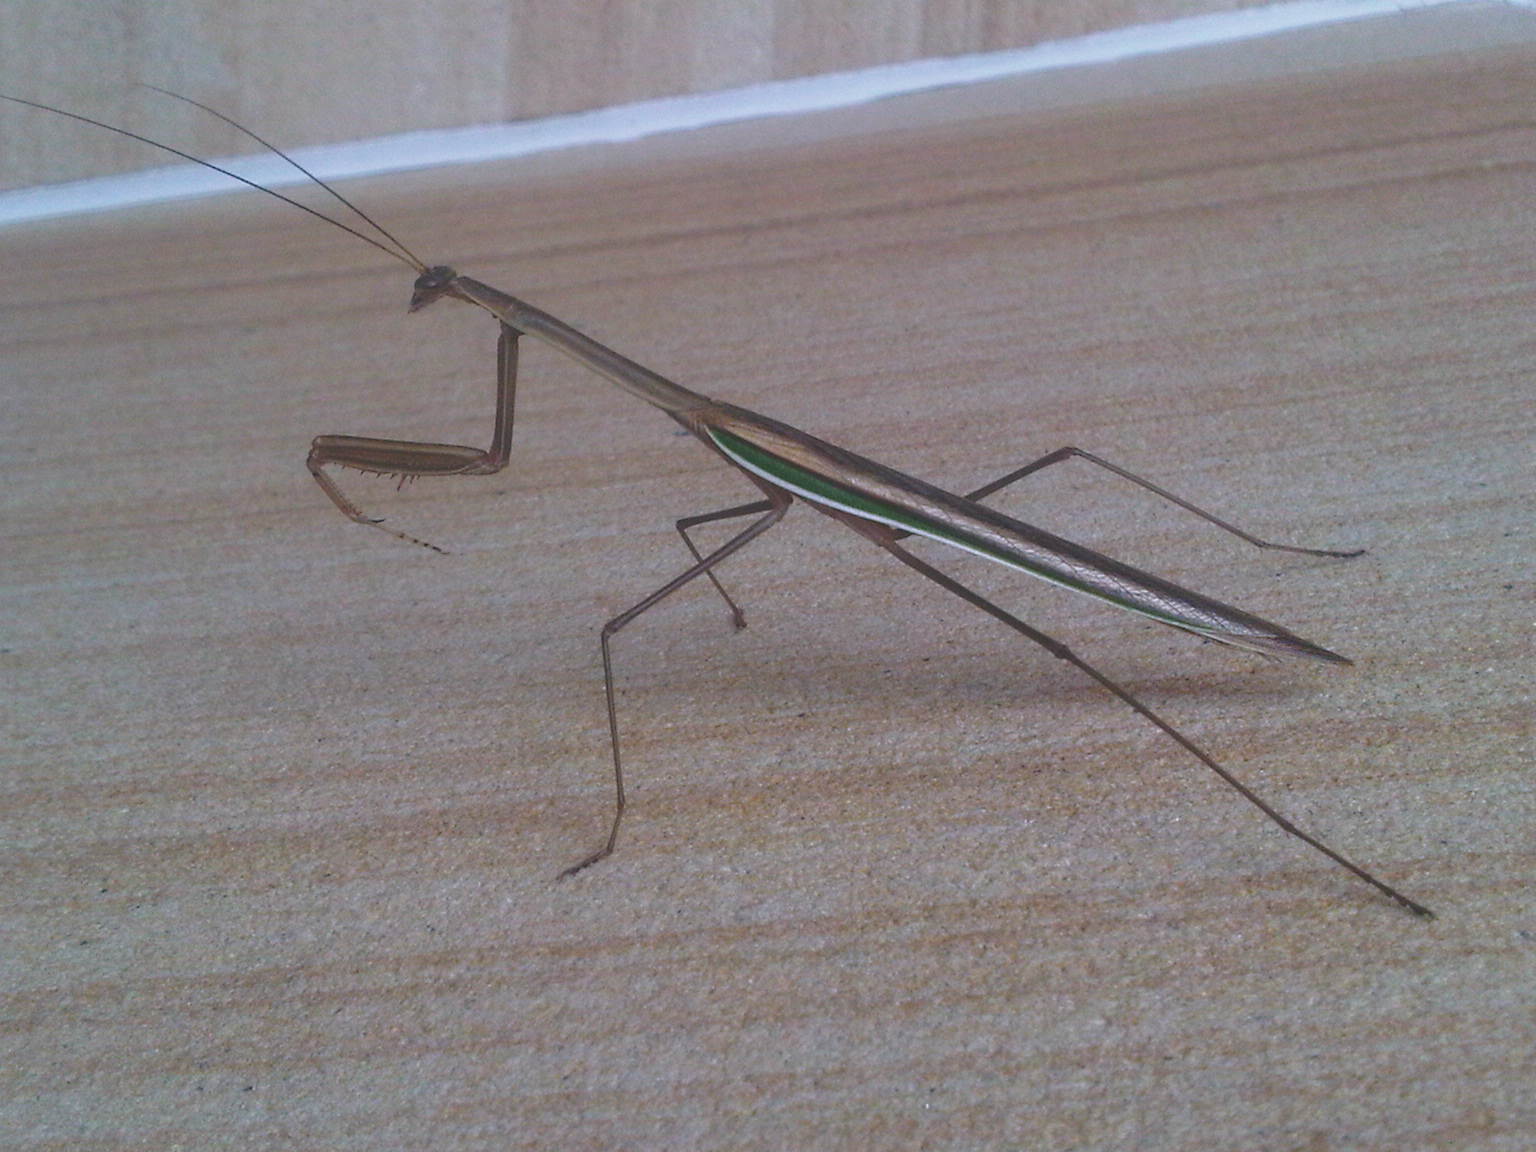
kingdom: Animalia
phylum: Arthropoda
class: Insecta
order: Mantodea
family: Mantidae
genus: Tenodera
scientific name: Tenodera australasiae
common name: Purple-winged mantis
